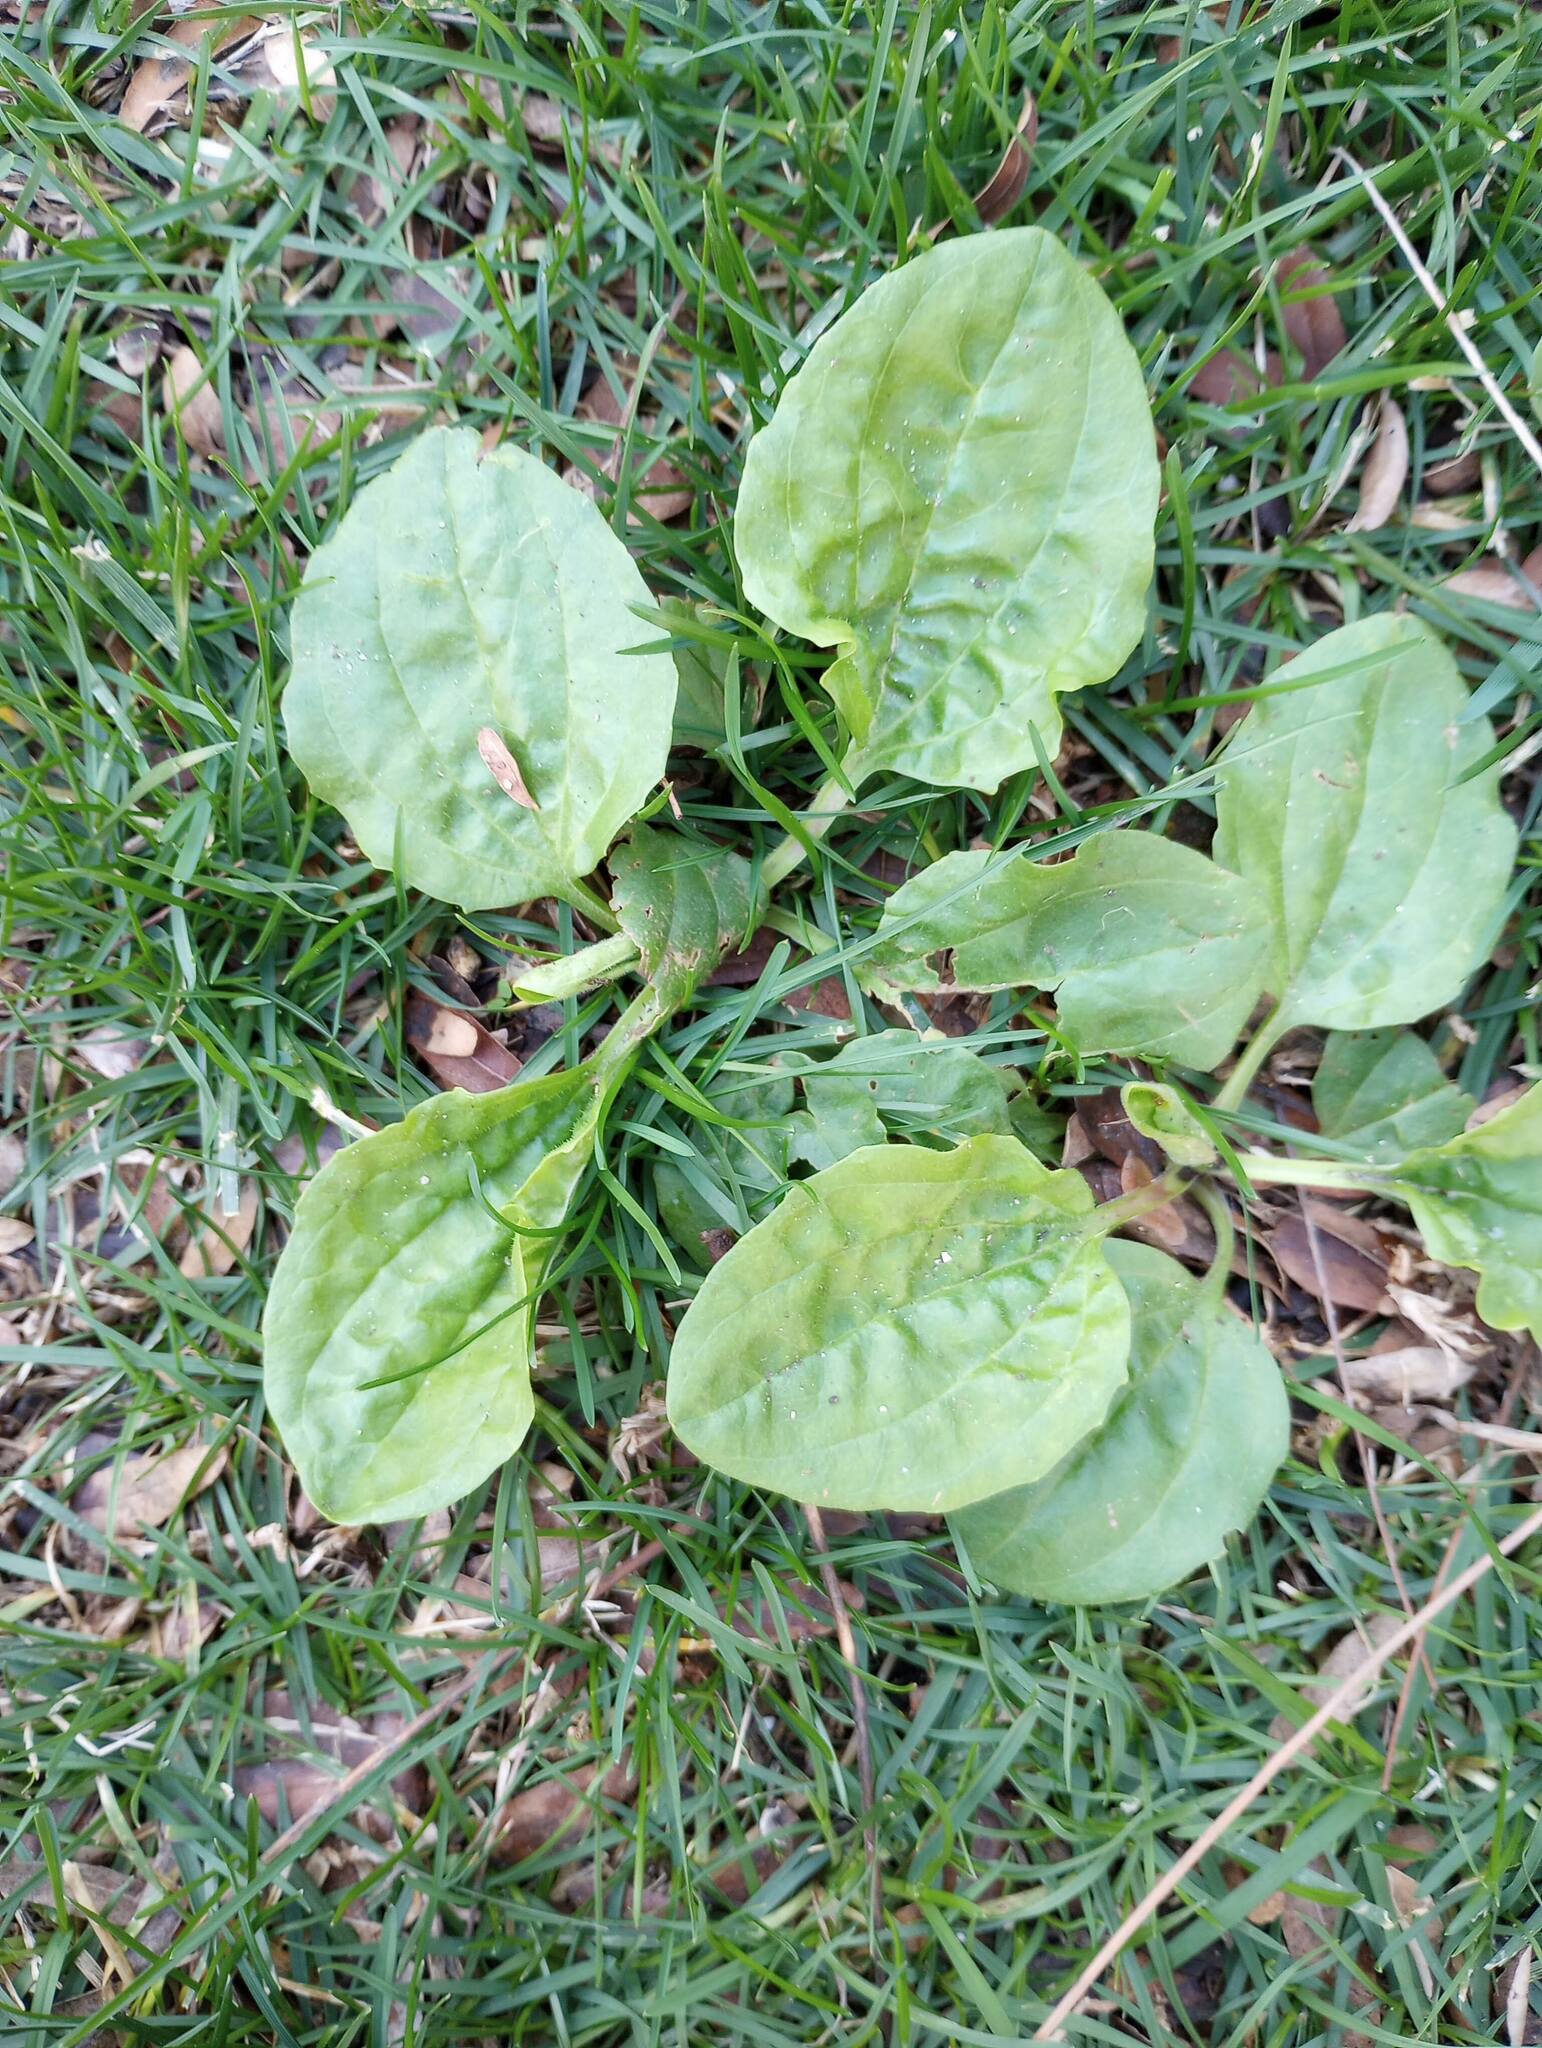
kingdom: Plantae
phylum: Tracheophyta
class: Magnoliopsida
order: Lamiales
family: Plantaginaceae
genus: Plantago
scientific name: Plantago major
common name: Common plantain
